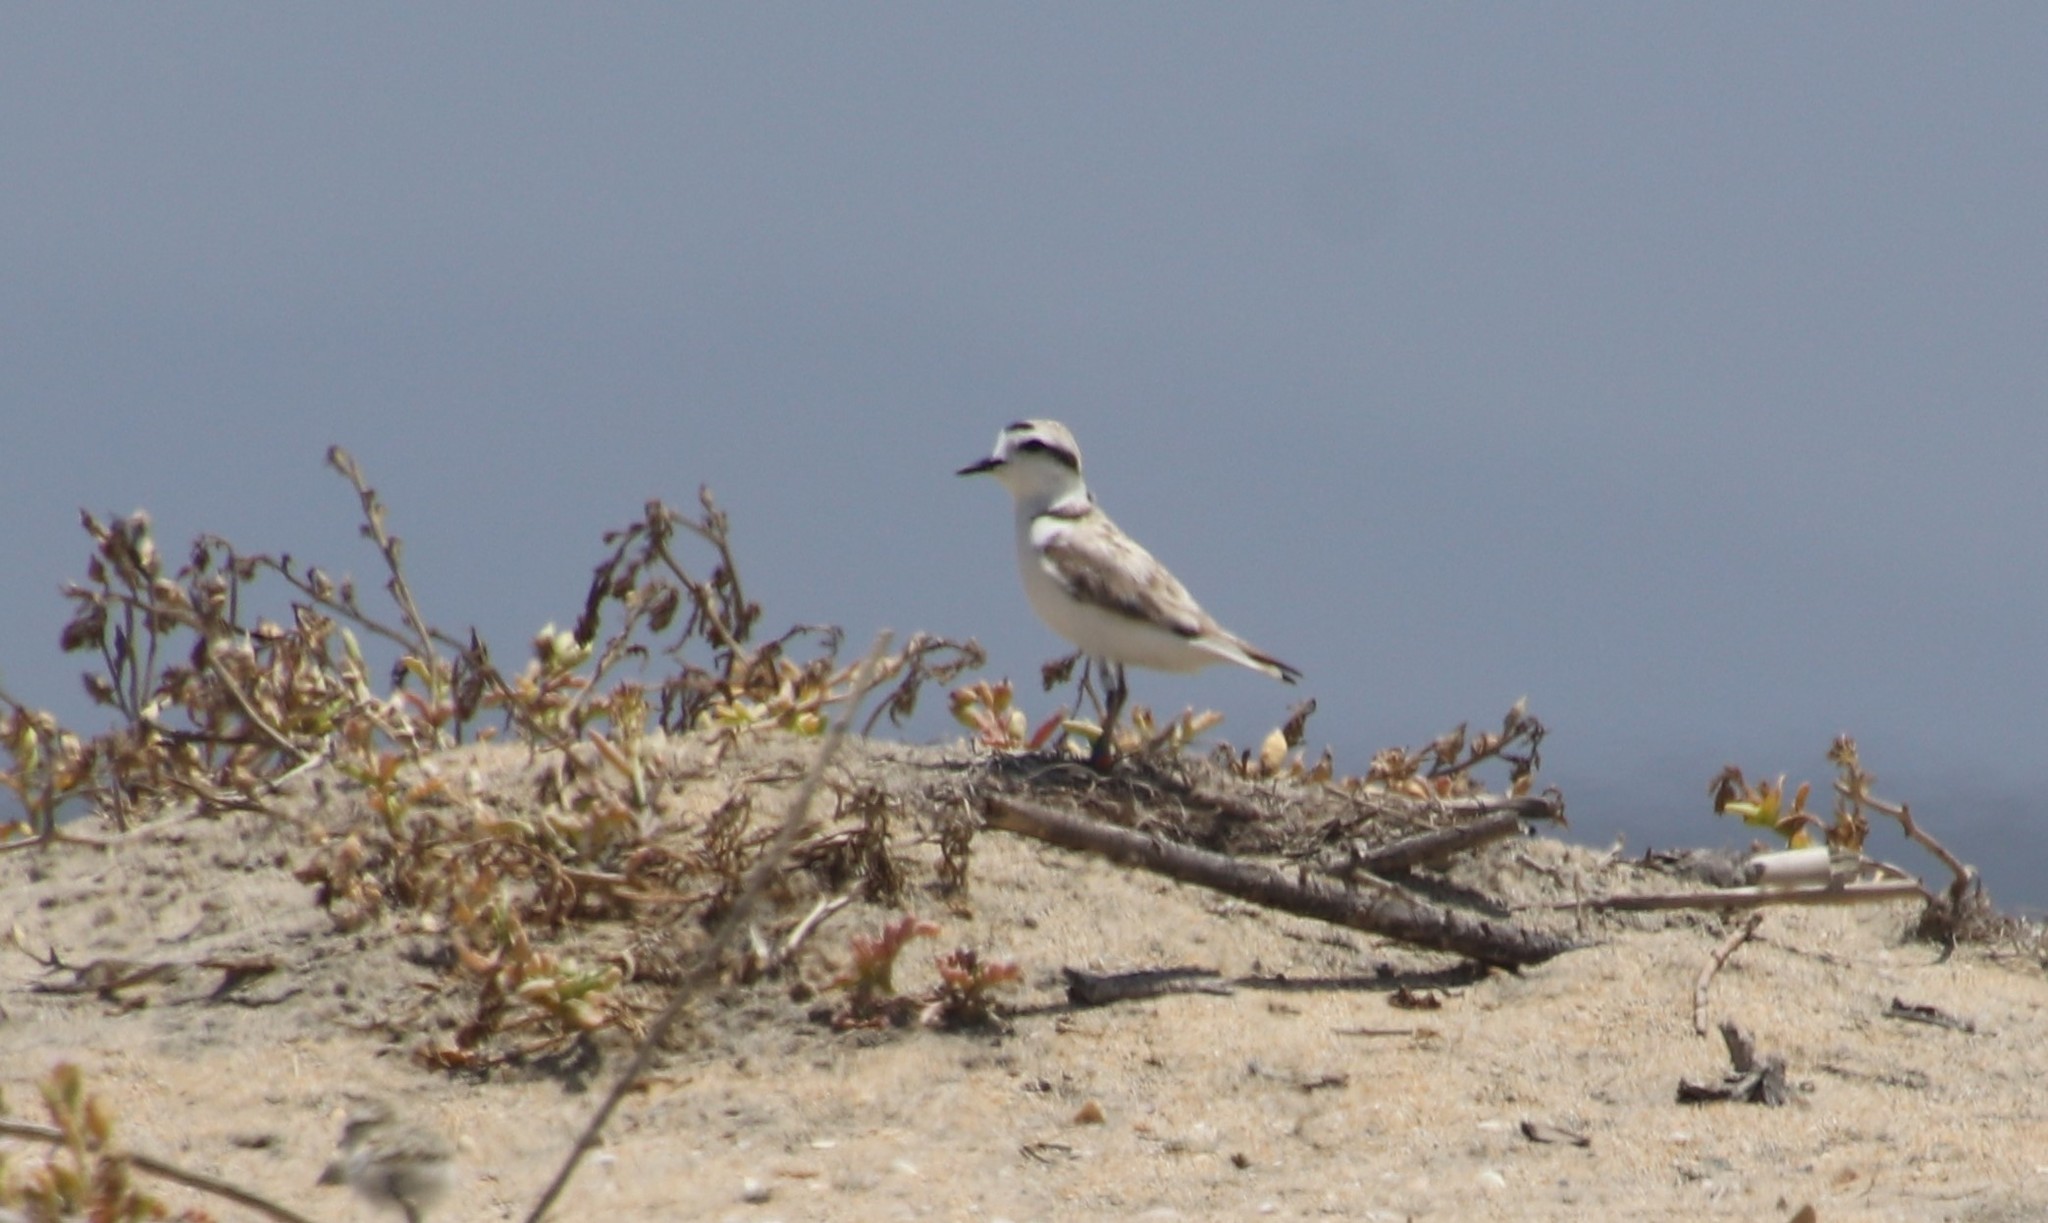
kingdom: Animalia
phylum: Chordata
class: Aves
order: Charadriiformes
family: Charadriidae
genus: Anarhynchus
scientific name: Anarhynchus
